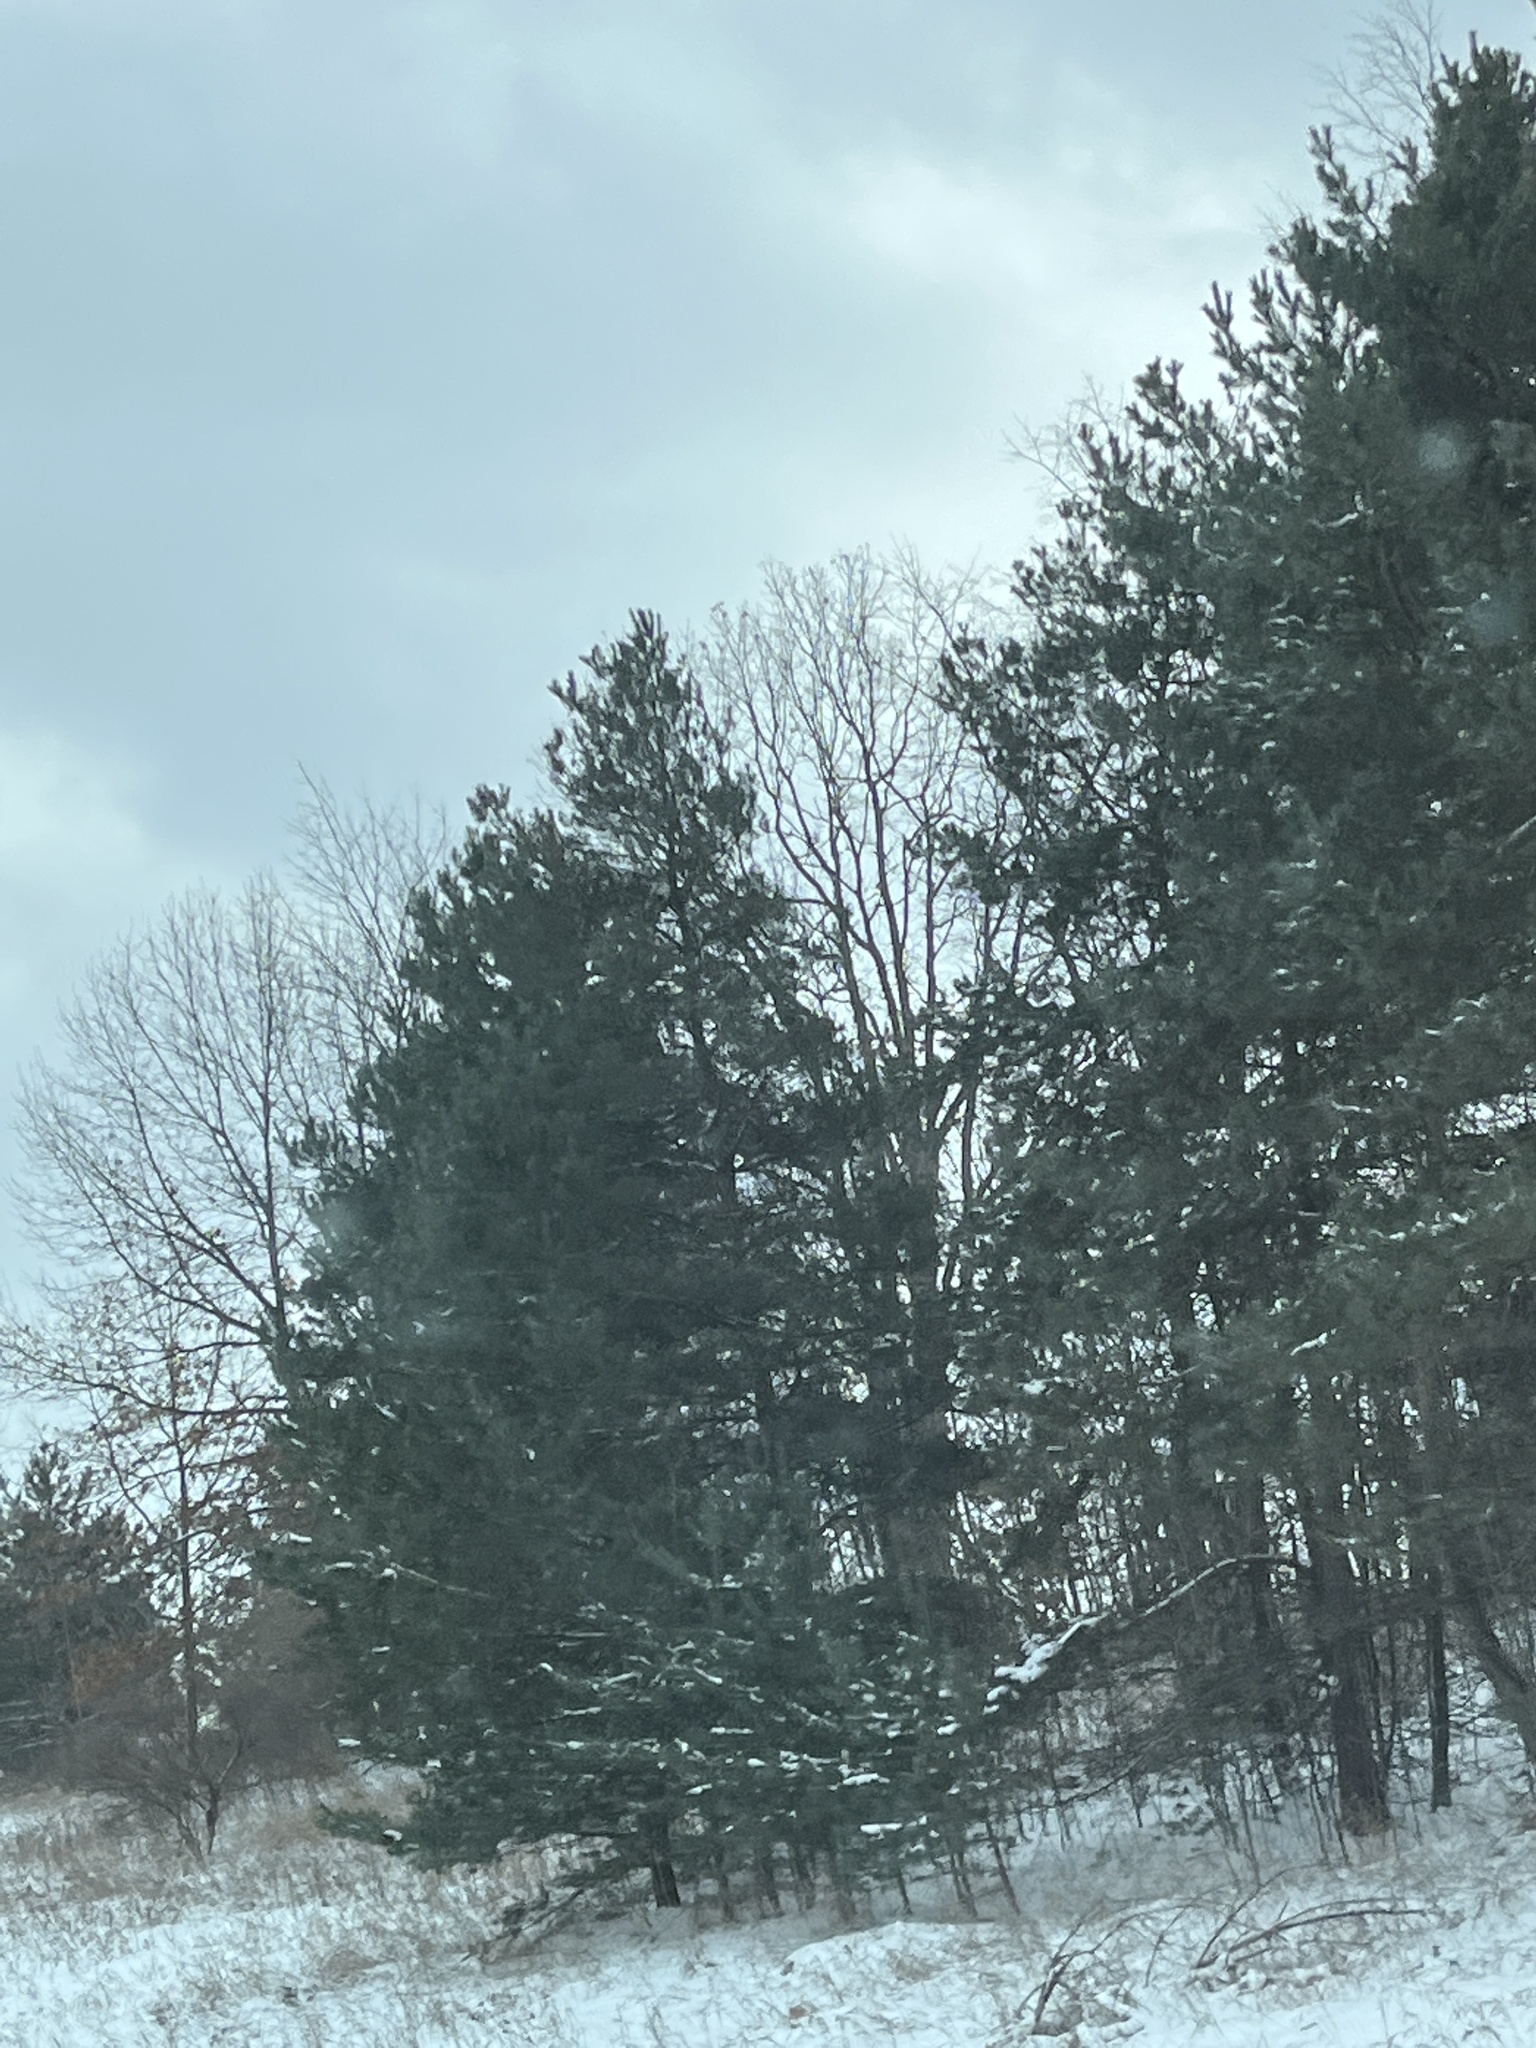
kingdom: Plantae
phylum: Tracheophyta
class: Pinopsida
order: Pinales
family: Pinaceae
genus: Pinus
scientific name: Pinus strobus
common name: Weymouth pine
